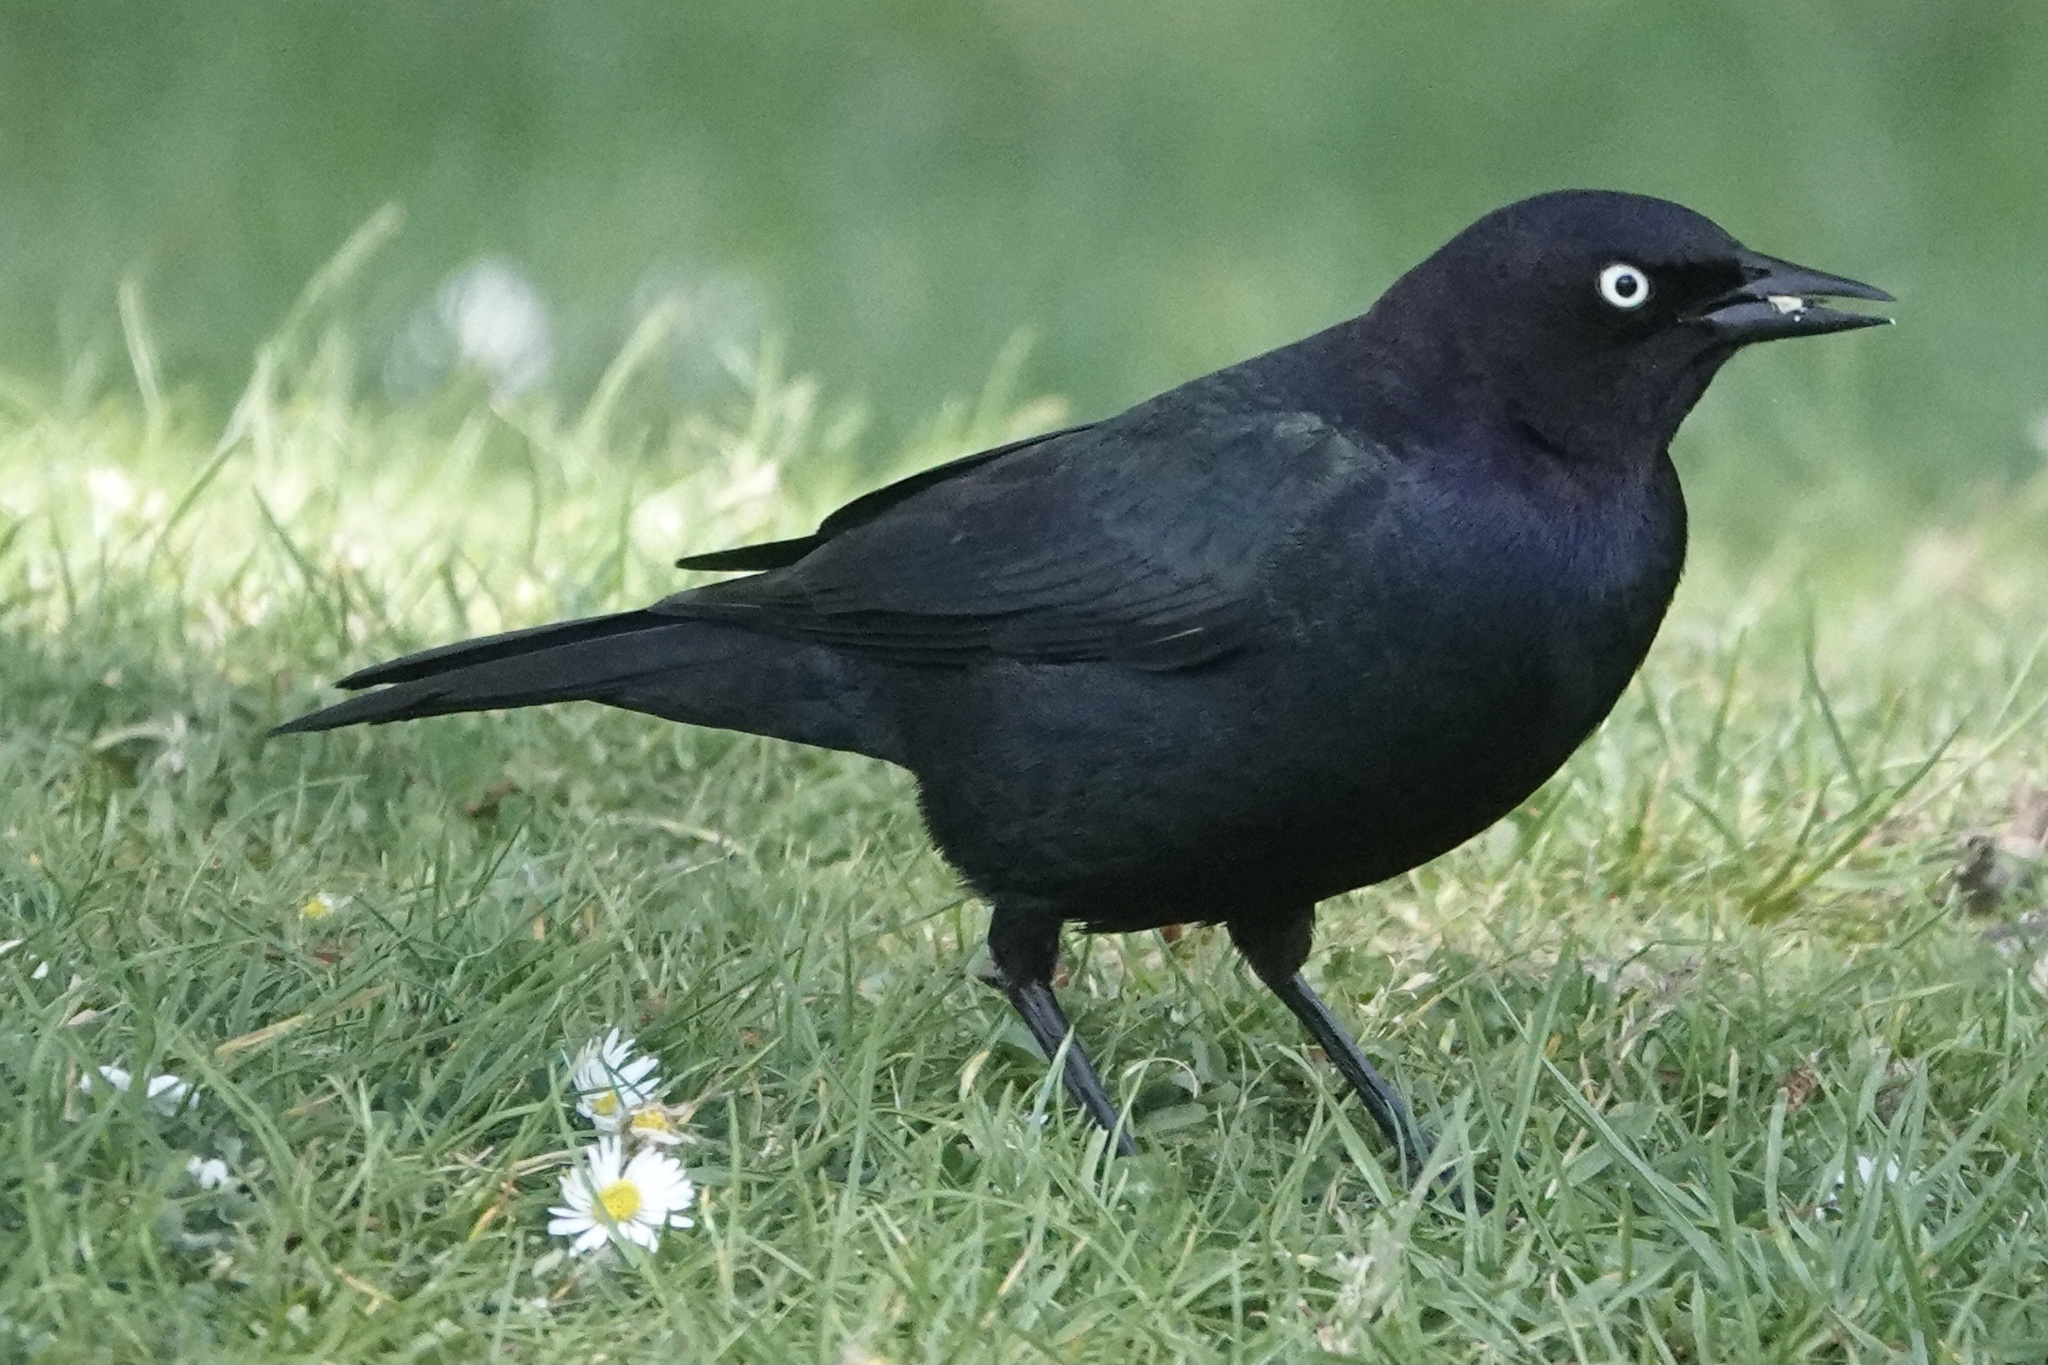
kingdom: Animalia
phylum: Chordata
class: Aves
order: Passeriformes
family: Icteridae
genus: Euphagus
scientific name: Euphagus cyanocephalus
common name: Brewer's blackbird
